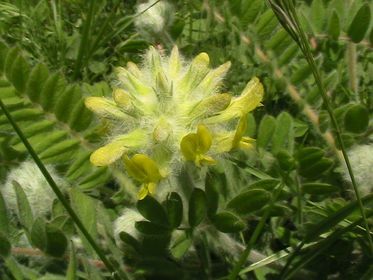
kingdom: Plantae
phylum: Tracheophyta
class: Magnoliopsida
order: Fabales
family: Fabaceae
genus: Astragalus
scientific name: Astragalus dasyanthus
